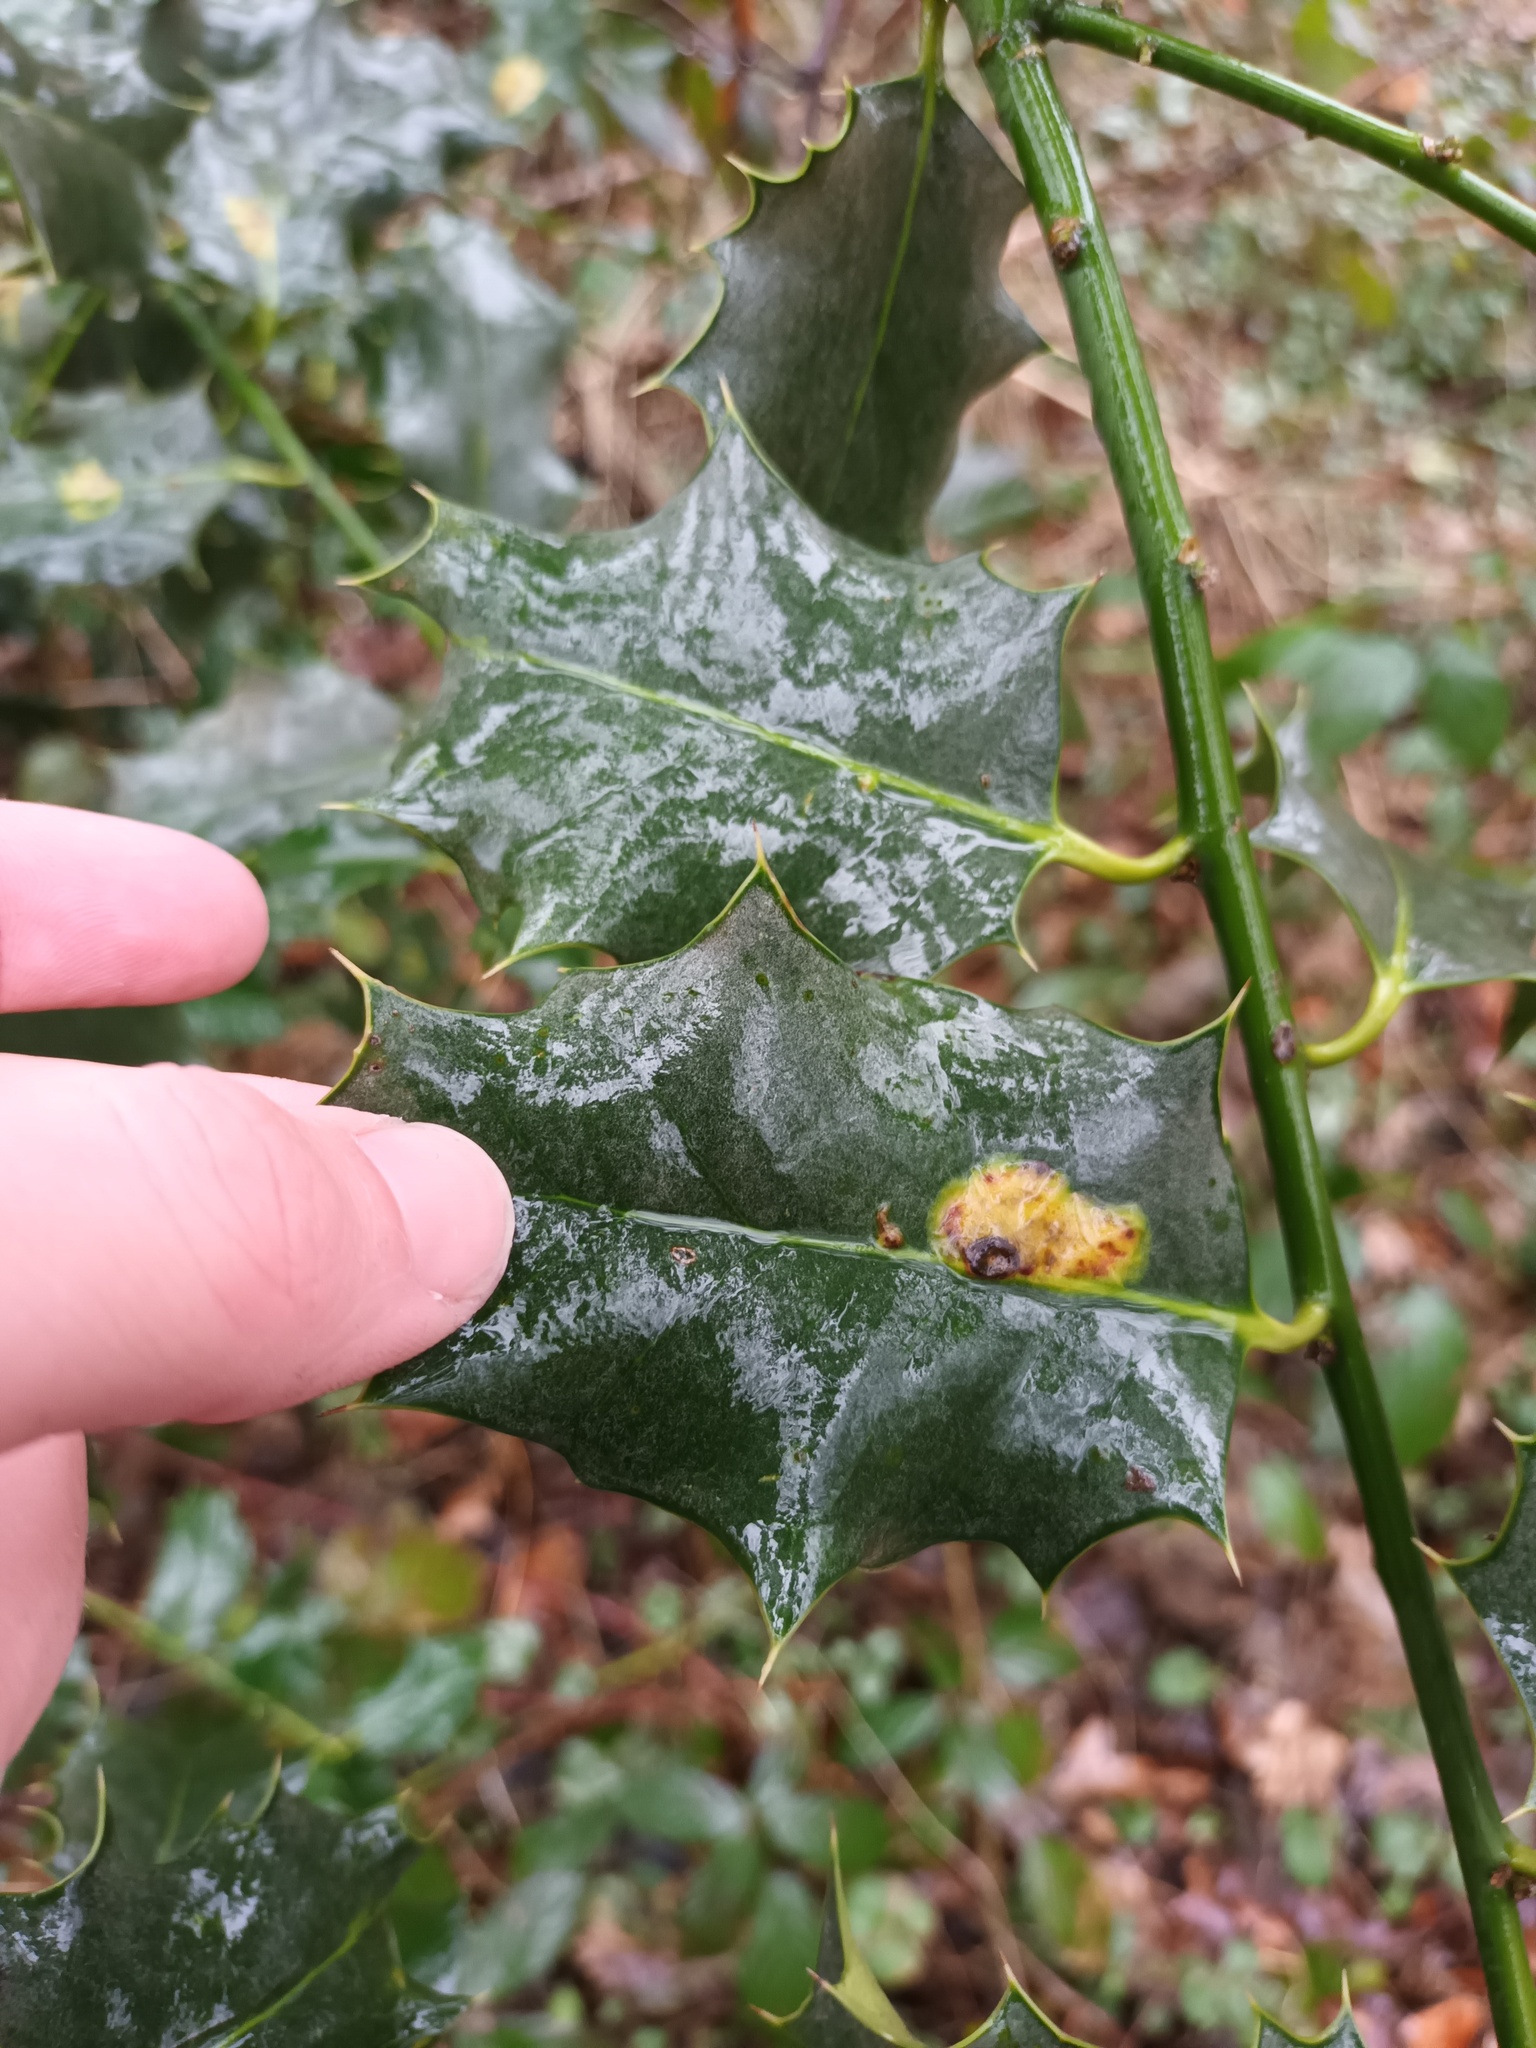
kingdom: Animalia
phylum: Arthropoda
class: Insecta
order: Diptera
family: Agromyzidae
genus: Phytomyza
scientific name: Phytomyza ilicis
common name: Holly leafminer
